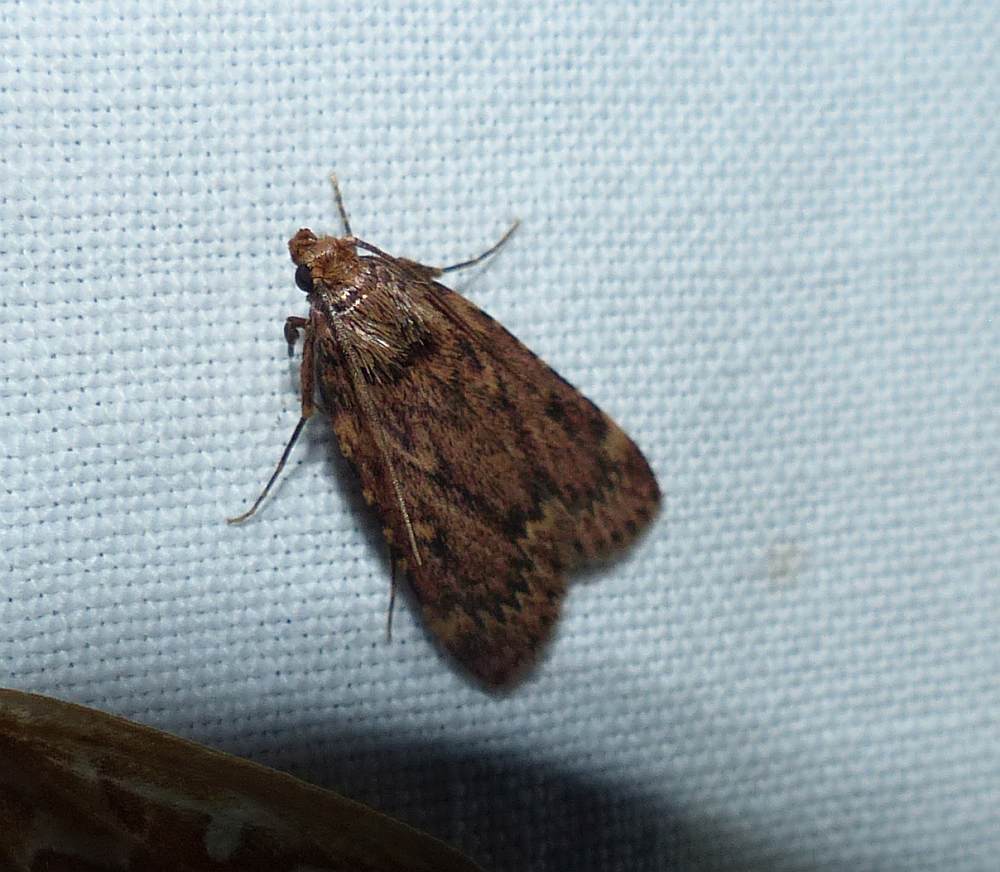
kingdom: Animalia
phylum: Arthropoda
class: Insecta
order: Lepidoptera
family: Pyralidae
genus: Aglossa
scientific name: Aglossa cuprina
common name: Grease moth
